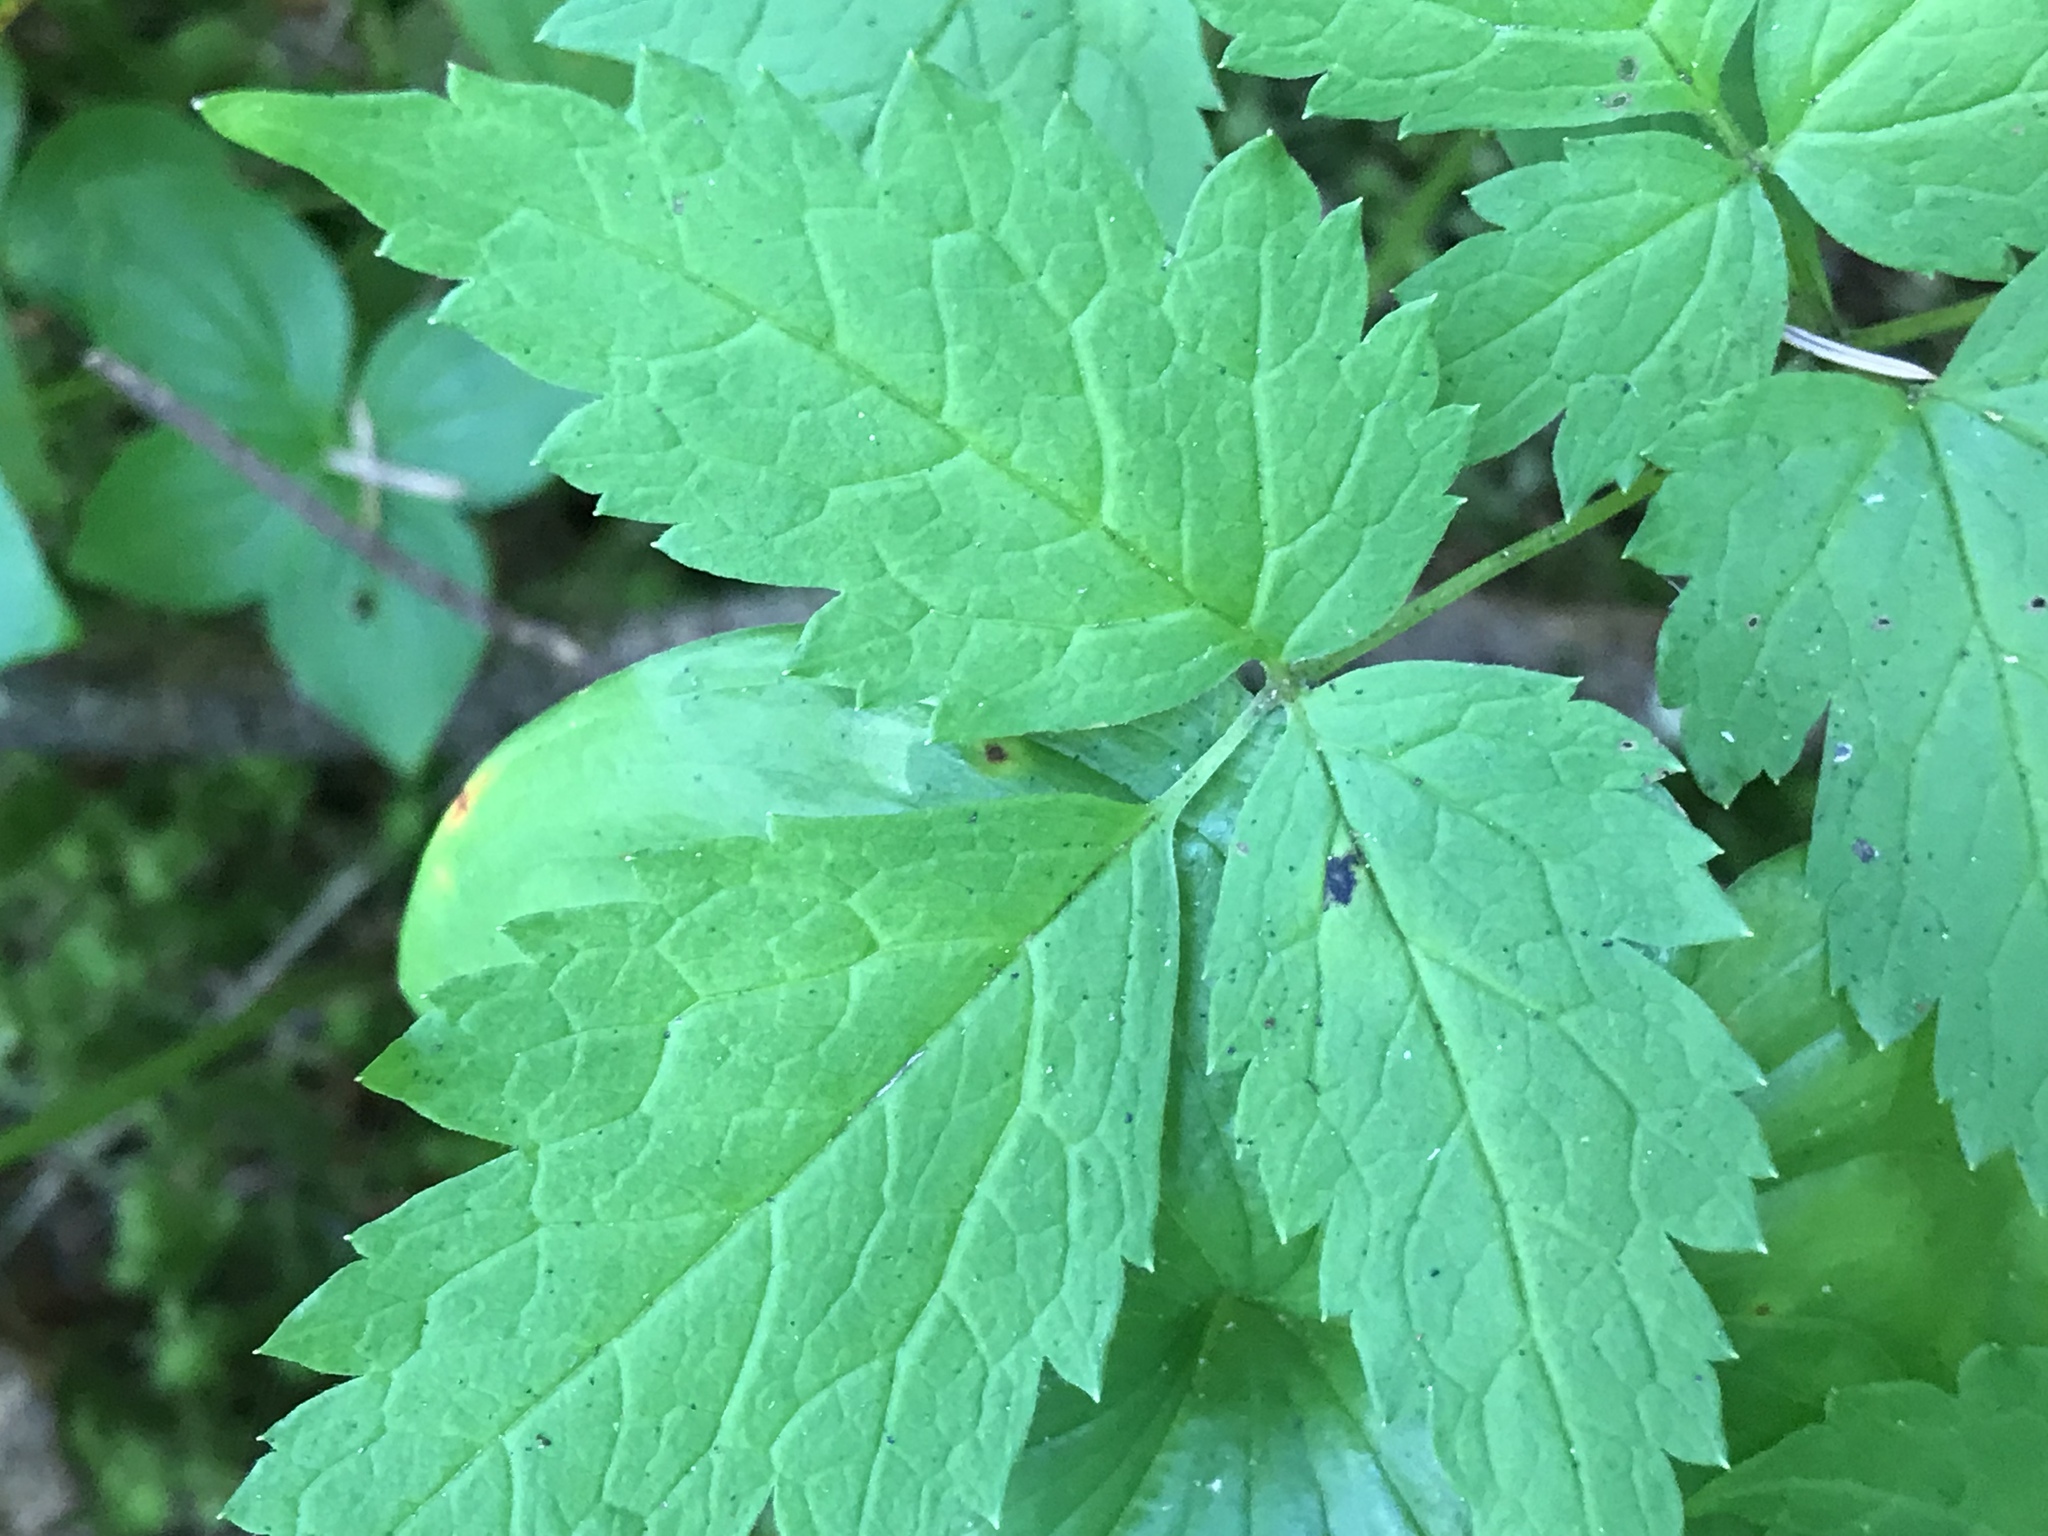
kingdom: Plantae
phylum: Tracheophyta
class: Magnoliopsida
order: Ranunculales
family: Ranunculaceae
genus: Actaea
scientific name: Actaea rubra
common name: Red baneberry
